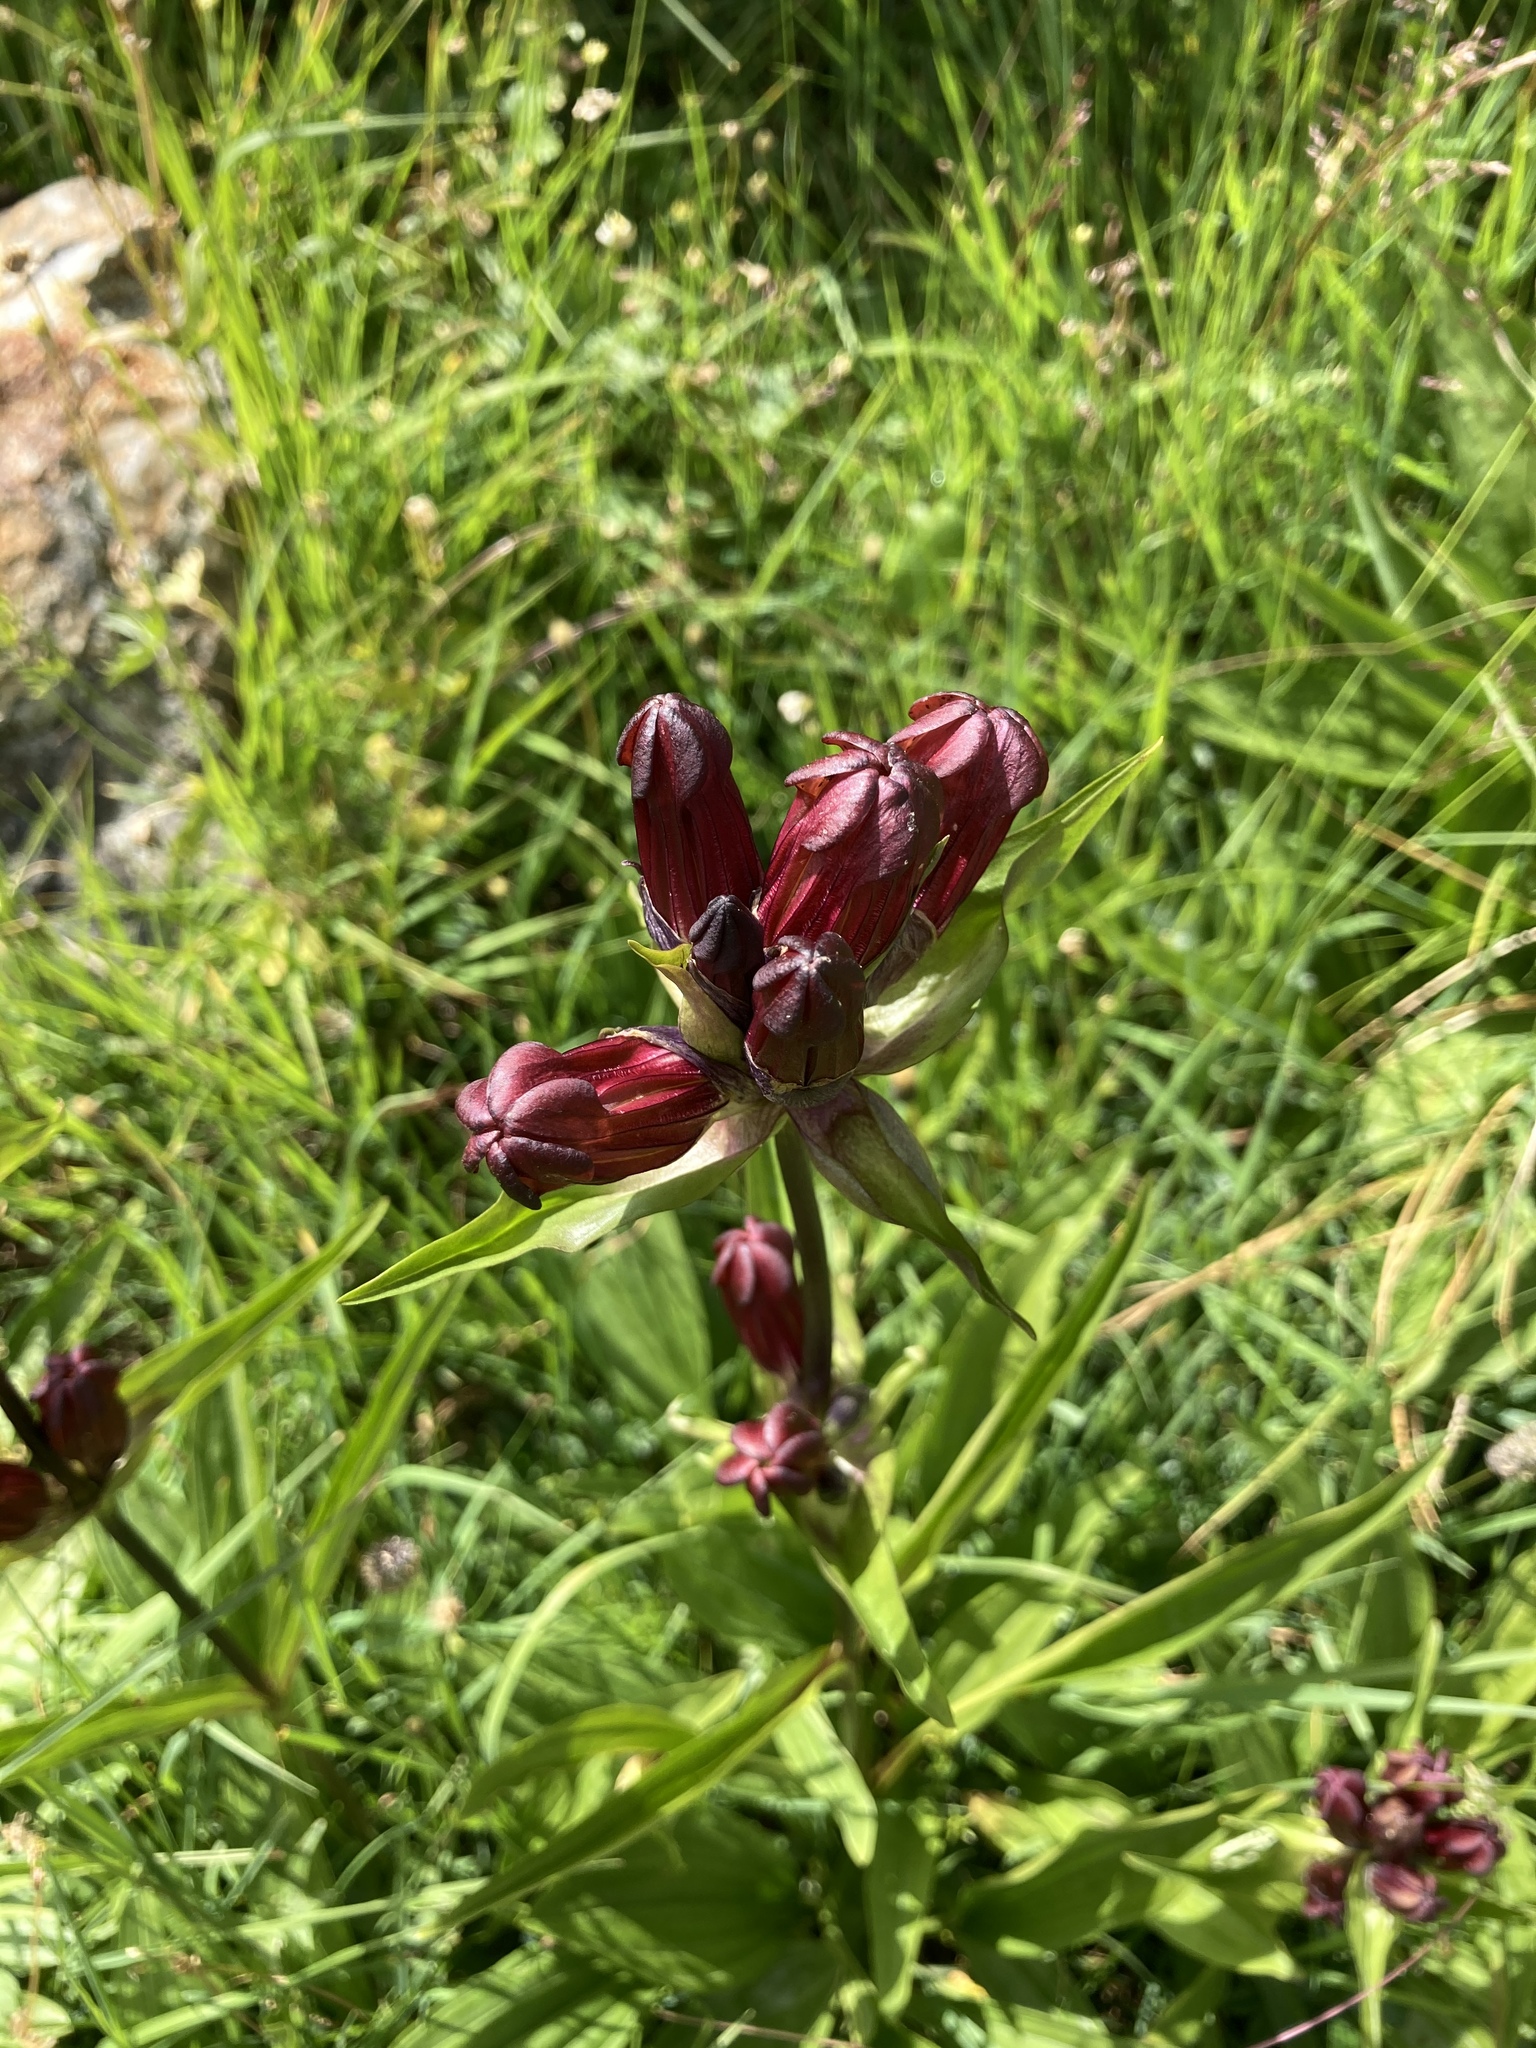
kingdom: Plantae
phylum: Tracheophyta
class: Magnoliopsida
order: Gentianales
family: Gentianaceae
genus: Gentiana
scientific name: Gentiana purpurea
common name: Purple gentian
